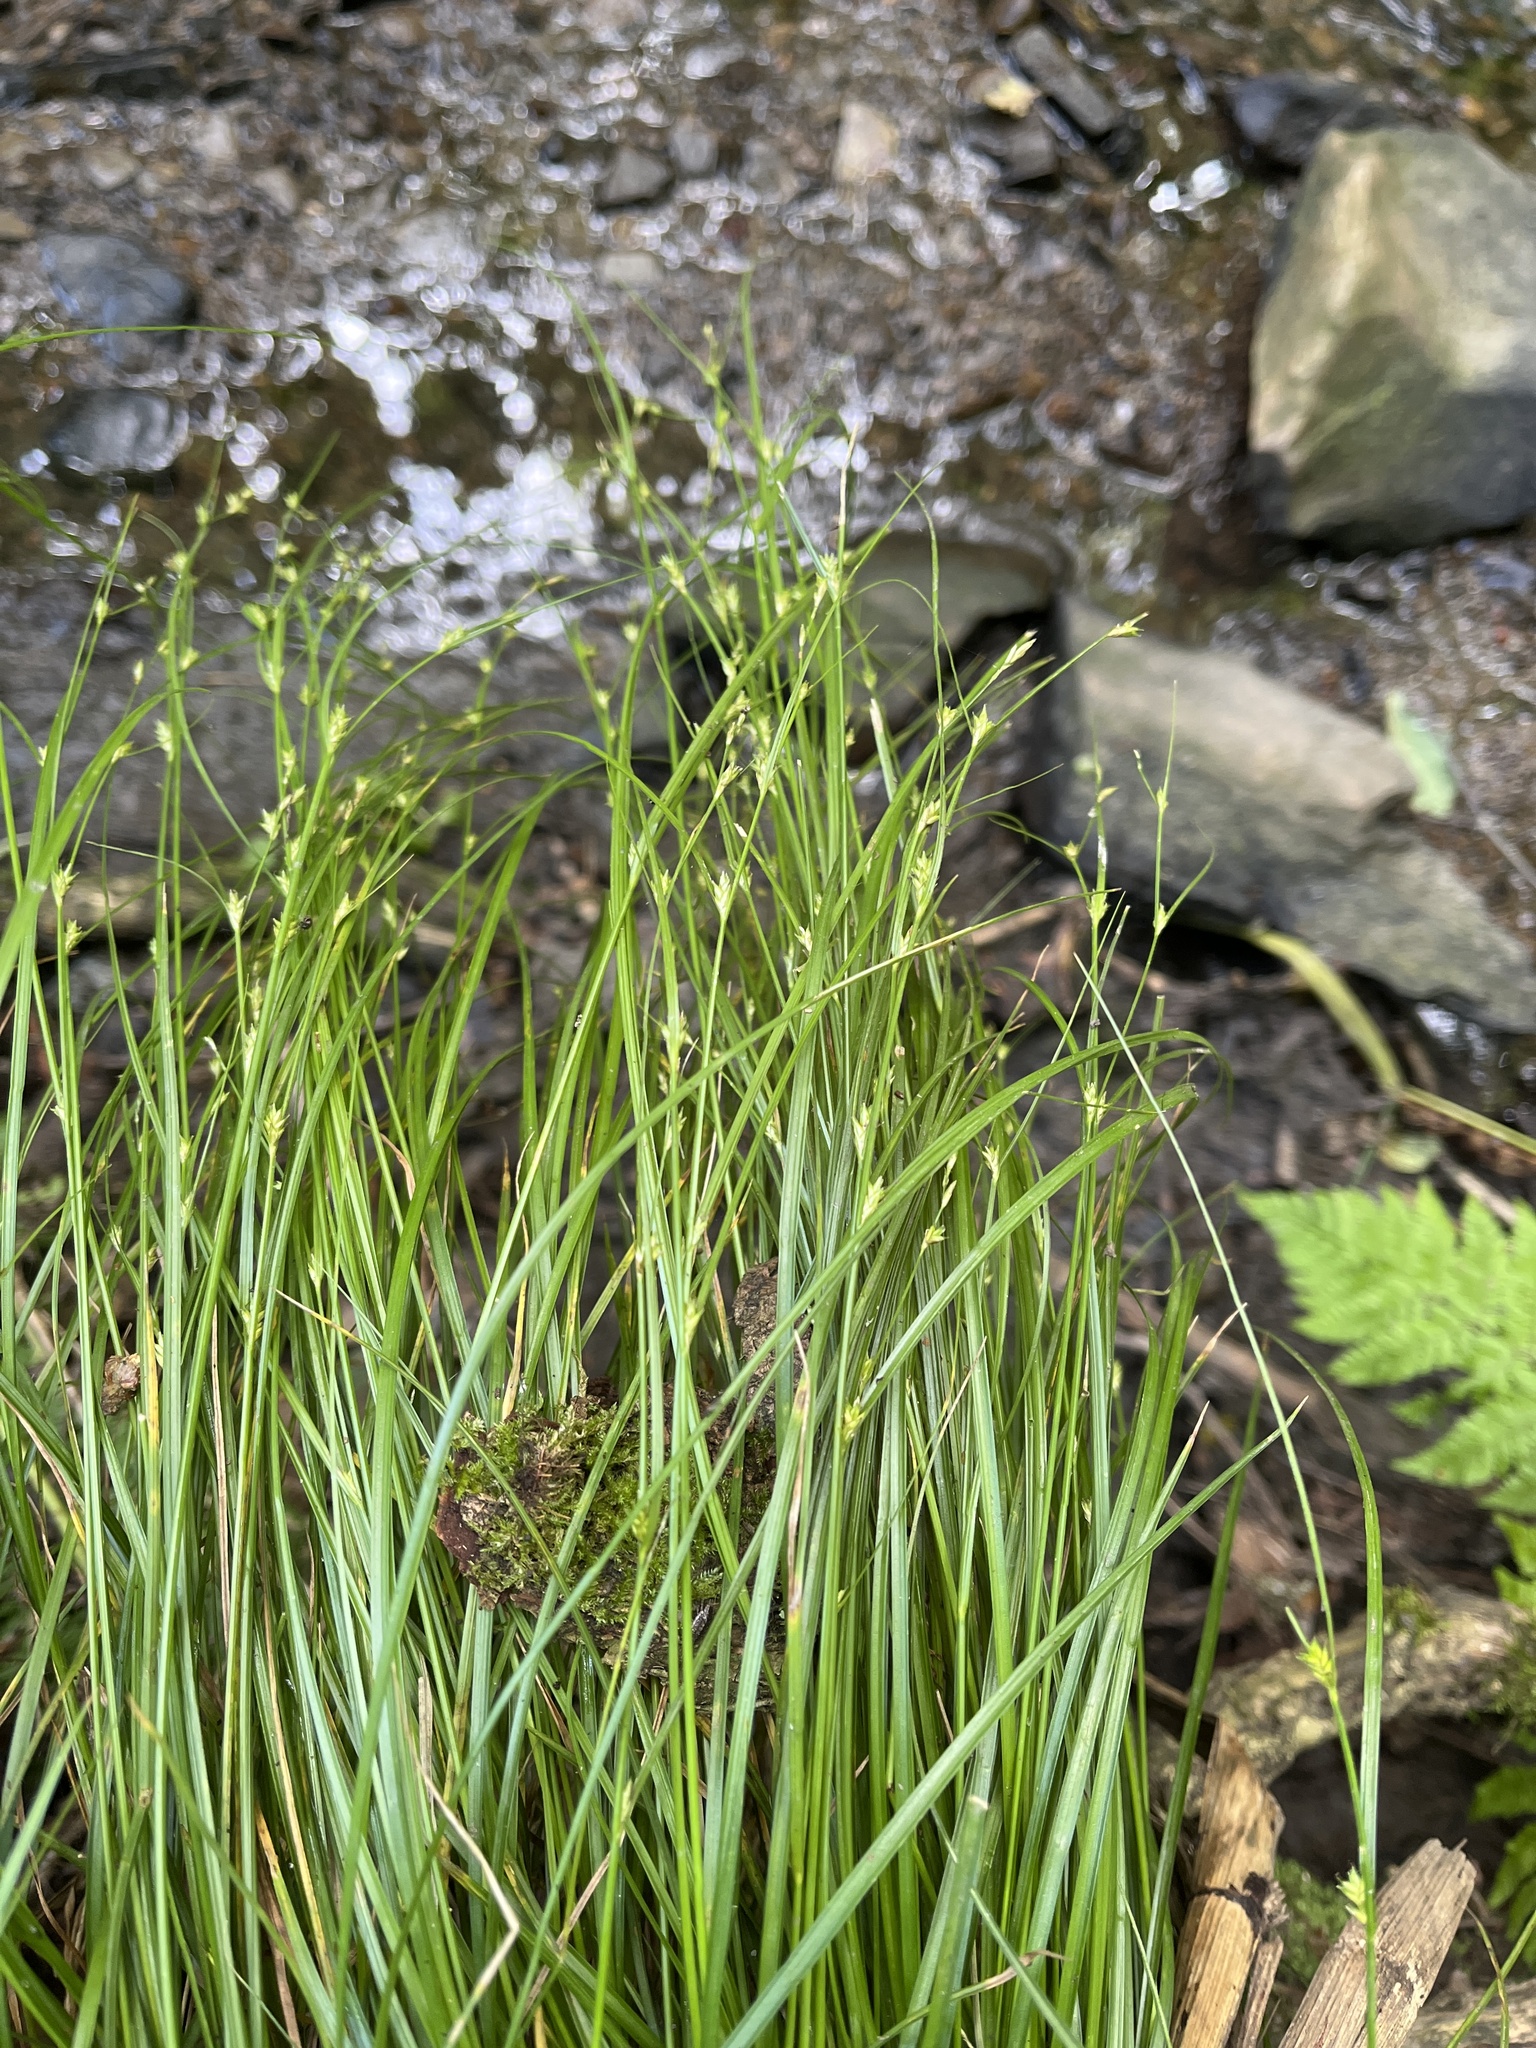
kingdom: Plantae
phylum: Tracheophyta
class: Liliopsida
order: Poales
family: Cyperaceae
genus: Carex
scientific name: Carex remota
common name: Remote sedge
